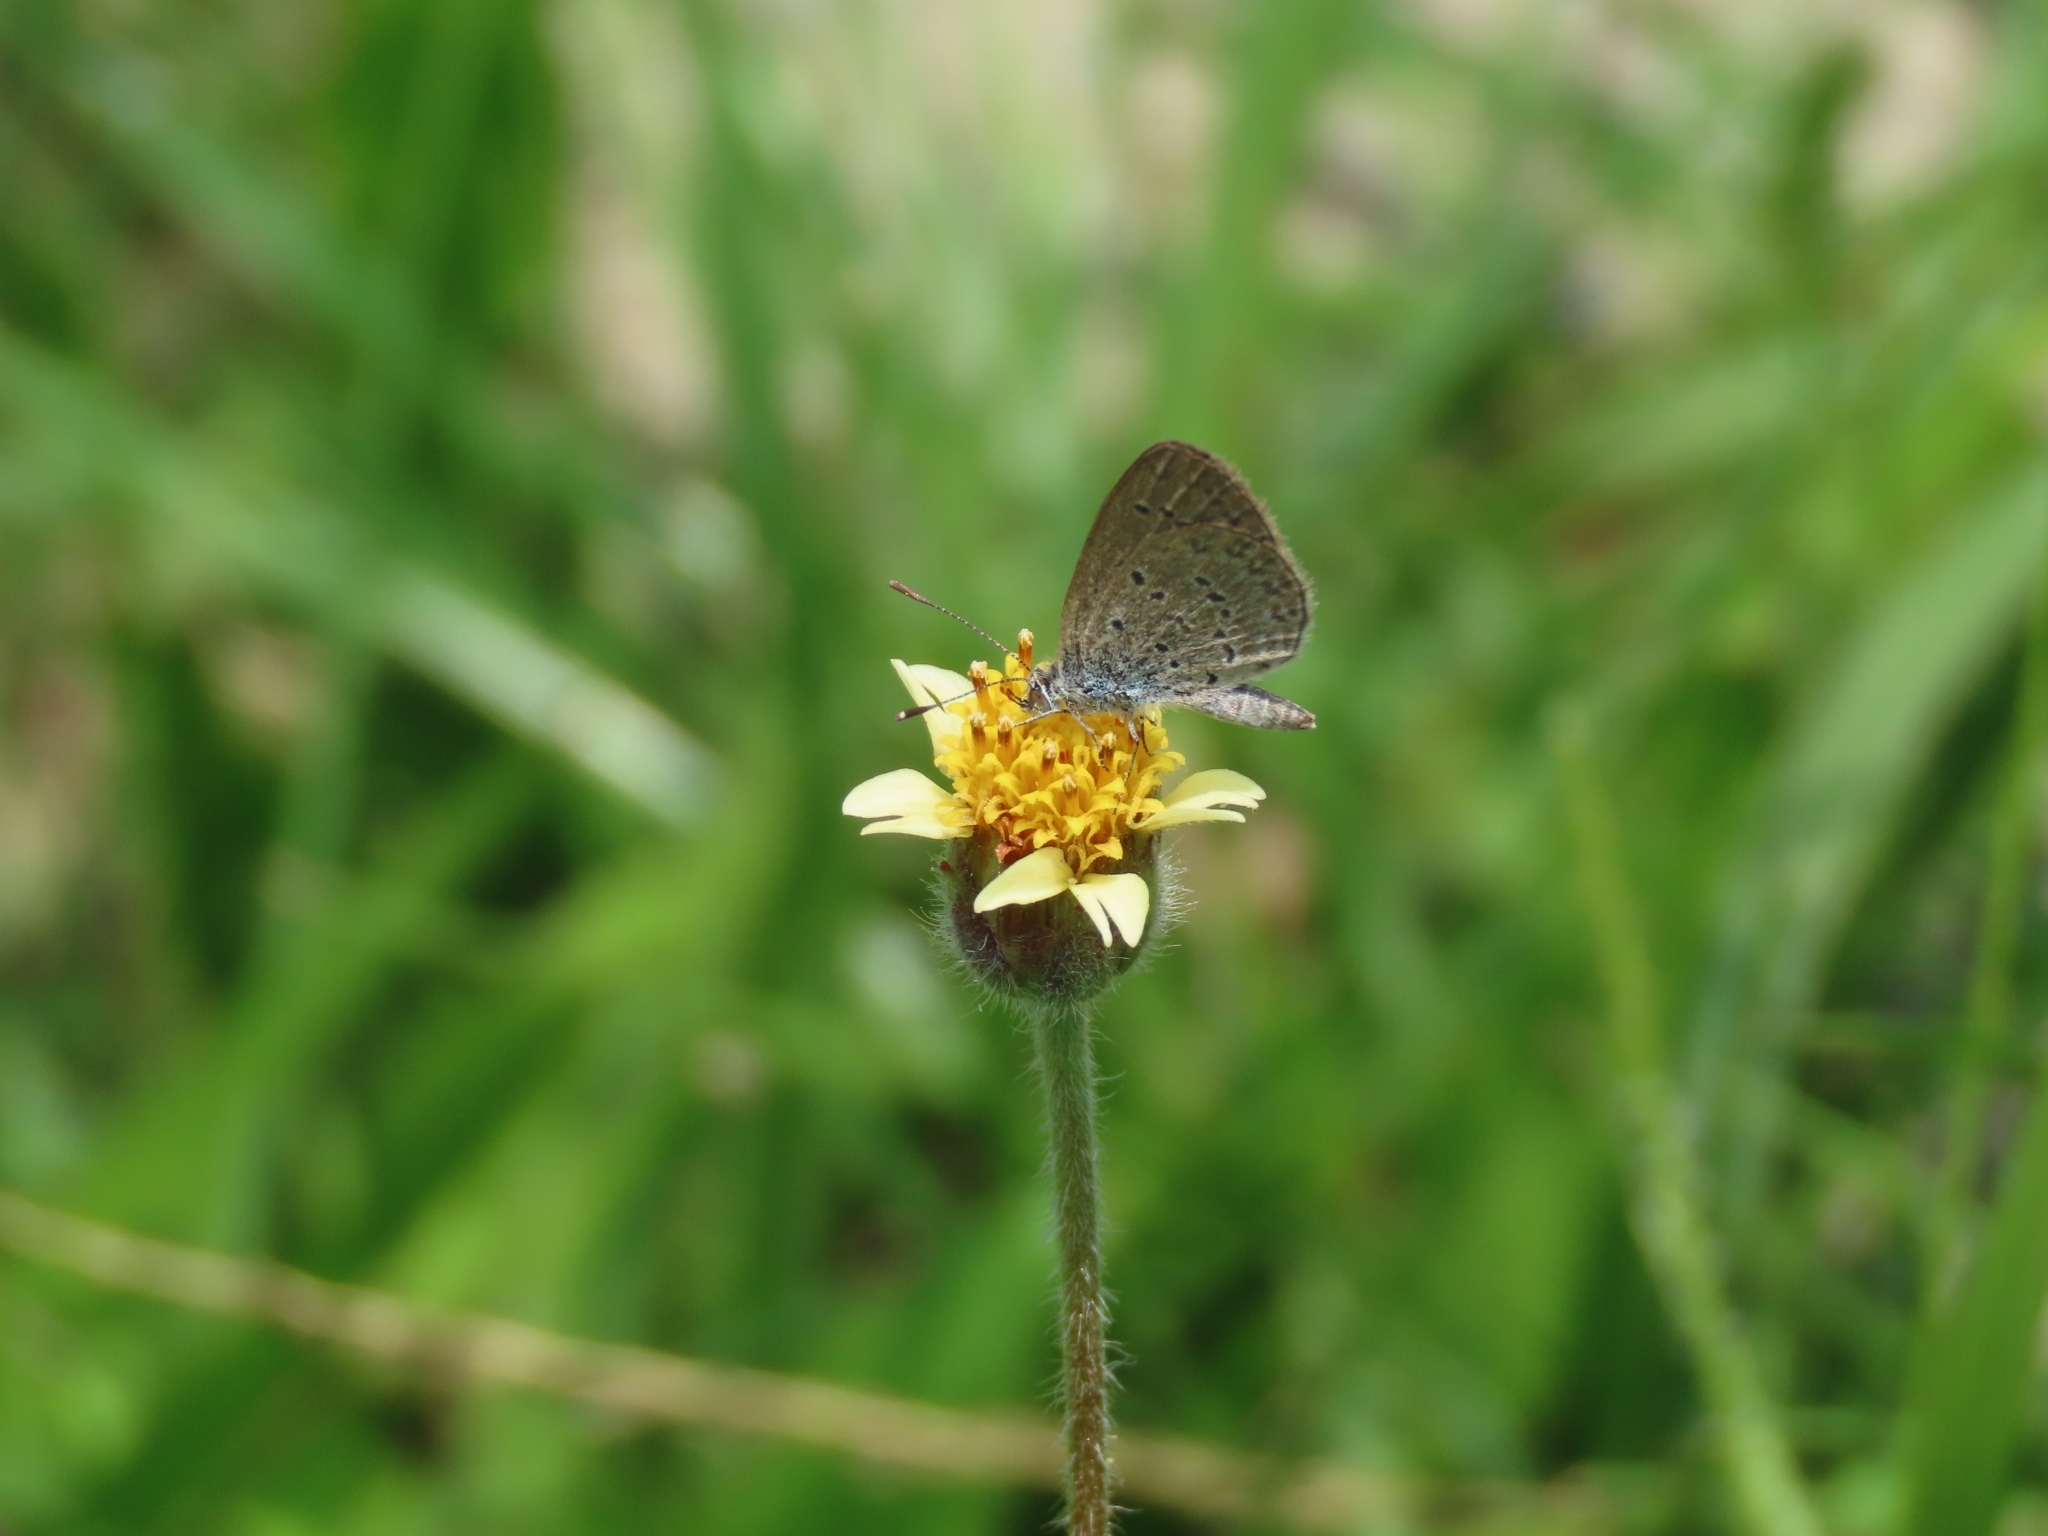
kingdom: Animalia
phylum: Arthropoda
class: Insecta
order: Lepidoptera
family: Lycaenidae
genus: Zizina
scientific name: Zizina otis
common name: Lesser grass blue
